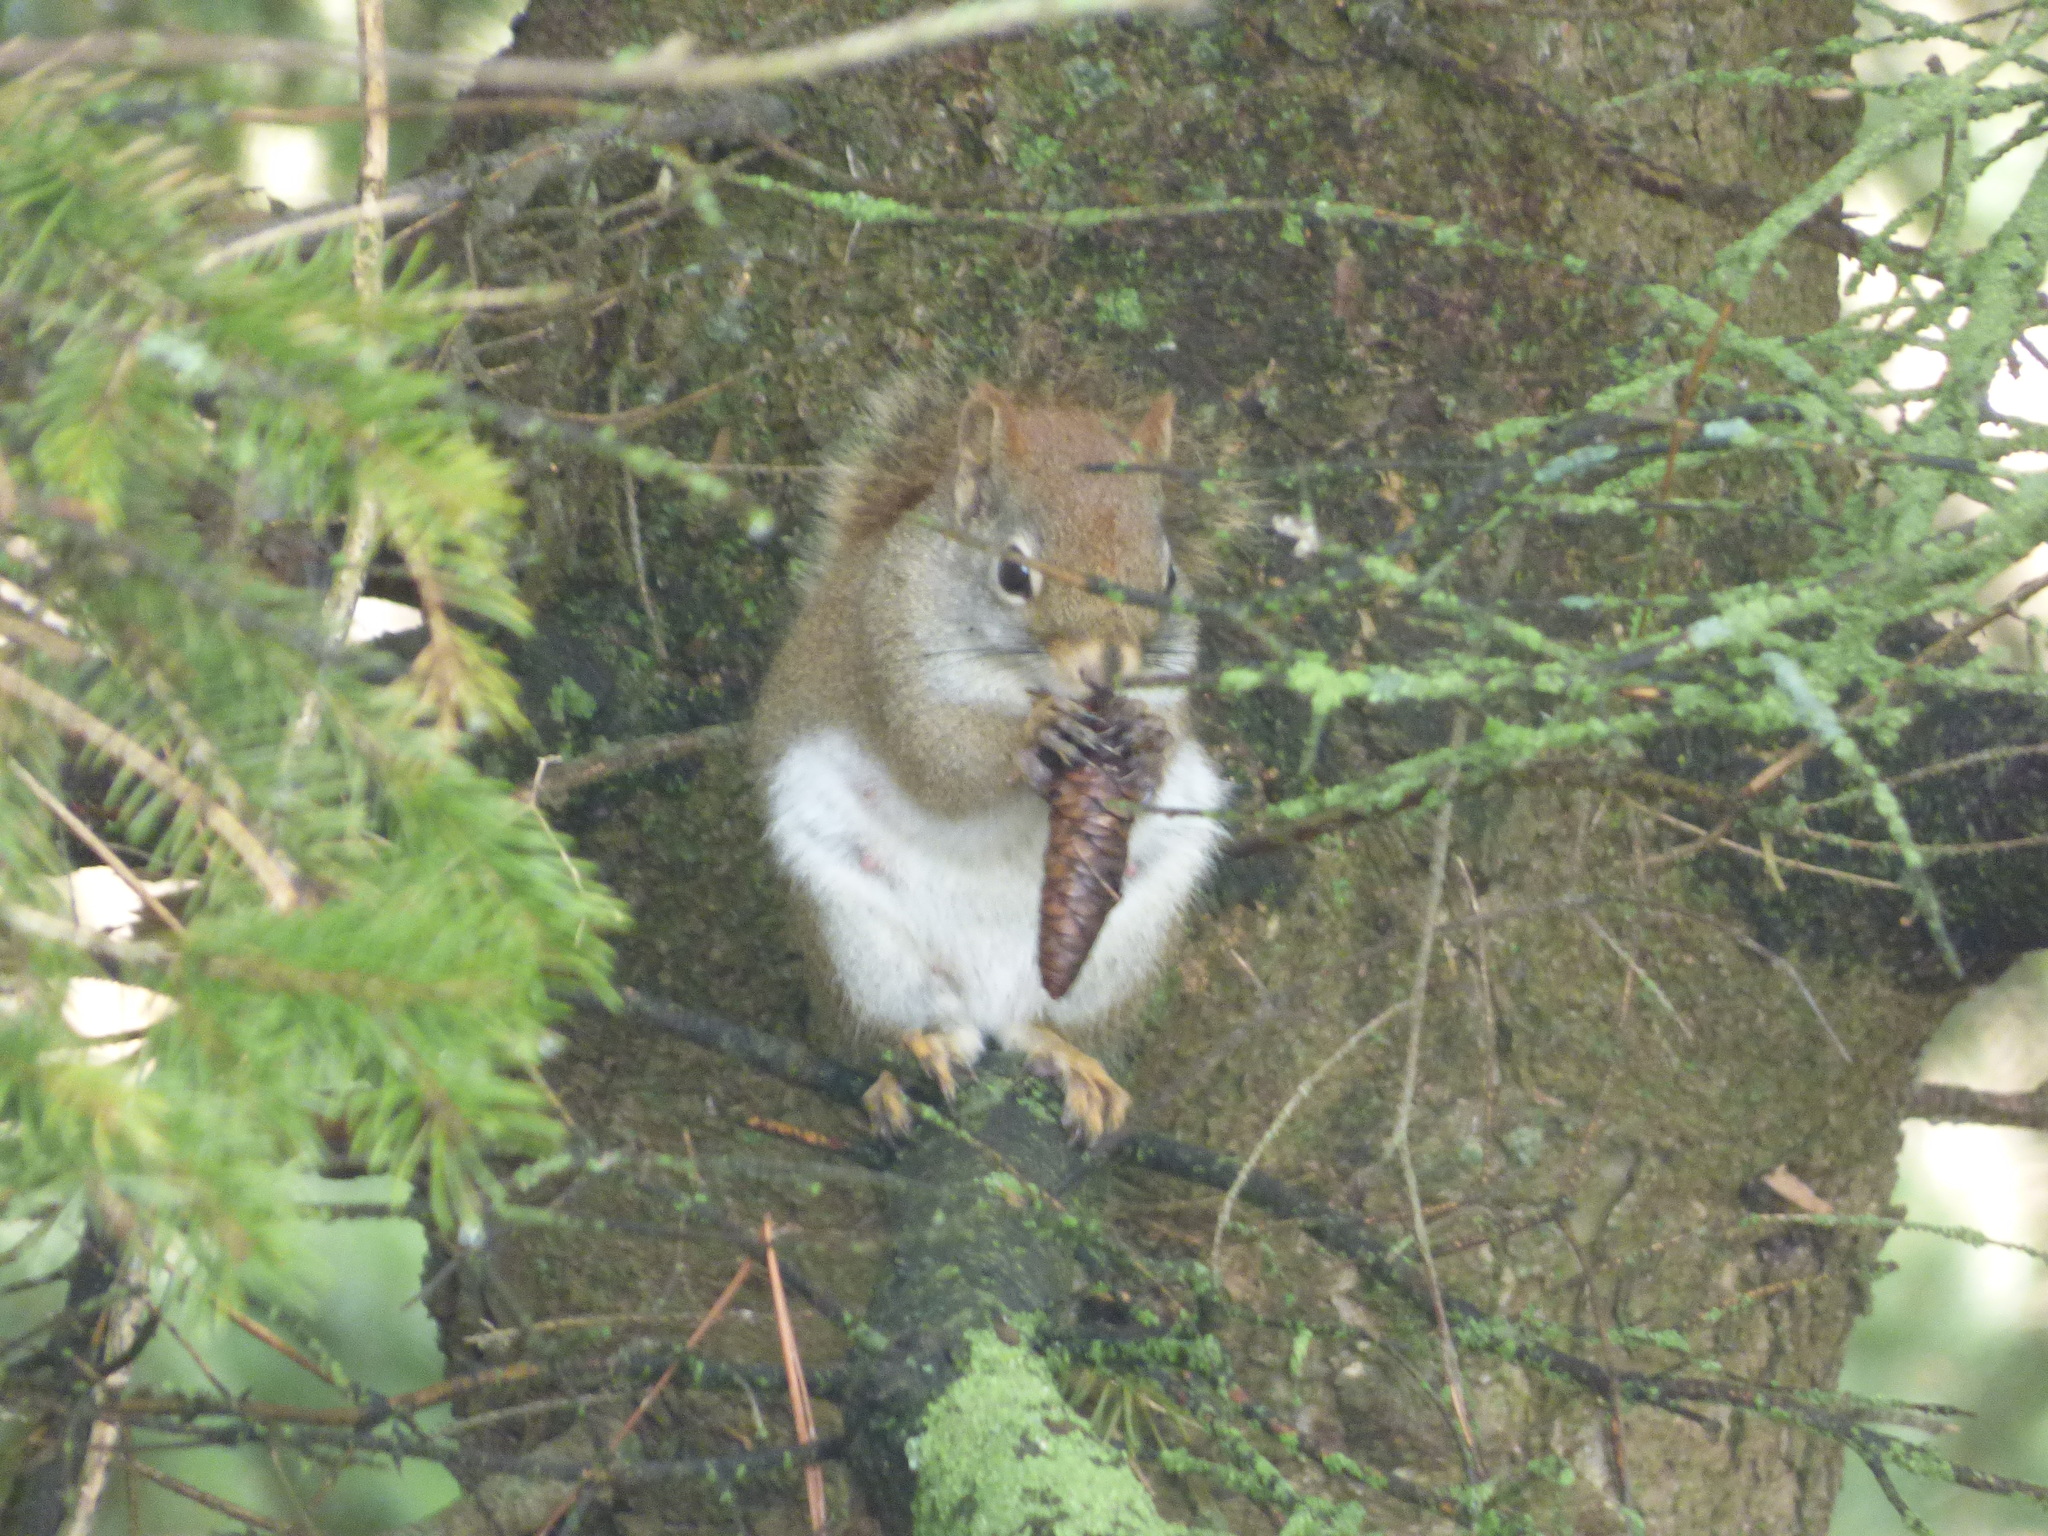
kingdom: Animalia
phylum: Chordata
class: Mammalia
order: Rodentia
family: Sciuridae
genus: Tamiasciurus
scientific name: Tamiasciurus hudsonicus
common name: Red squirrel
